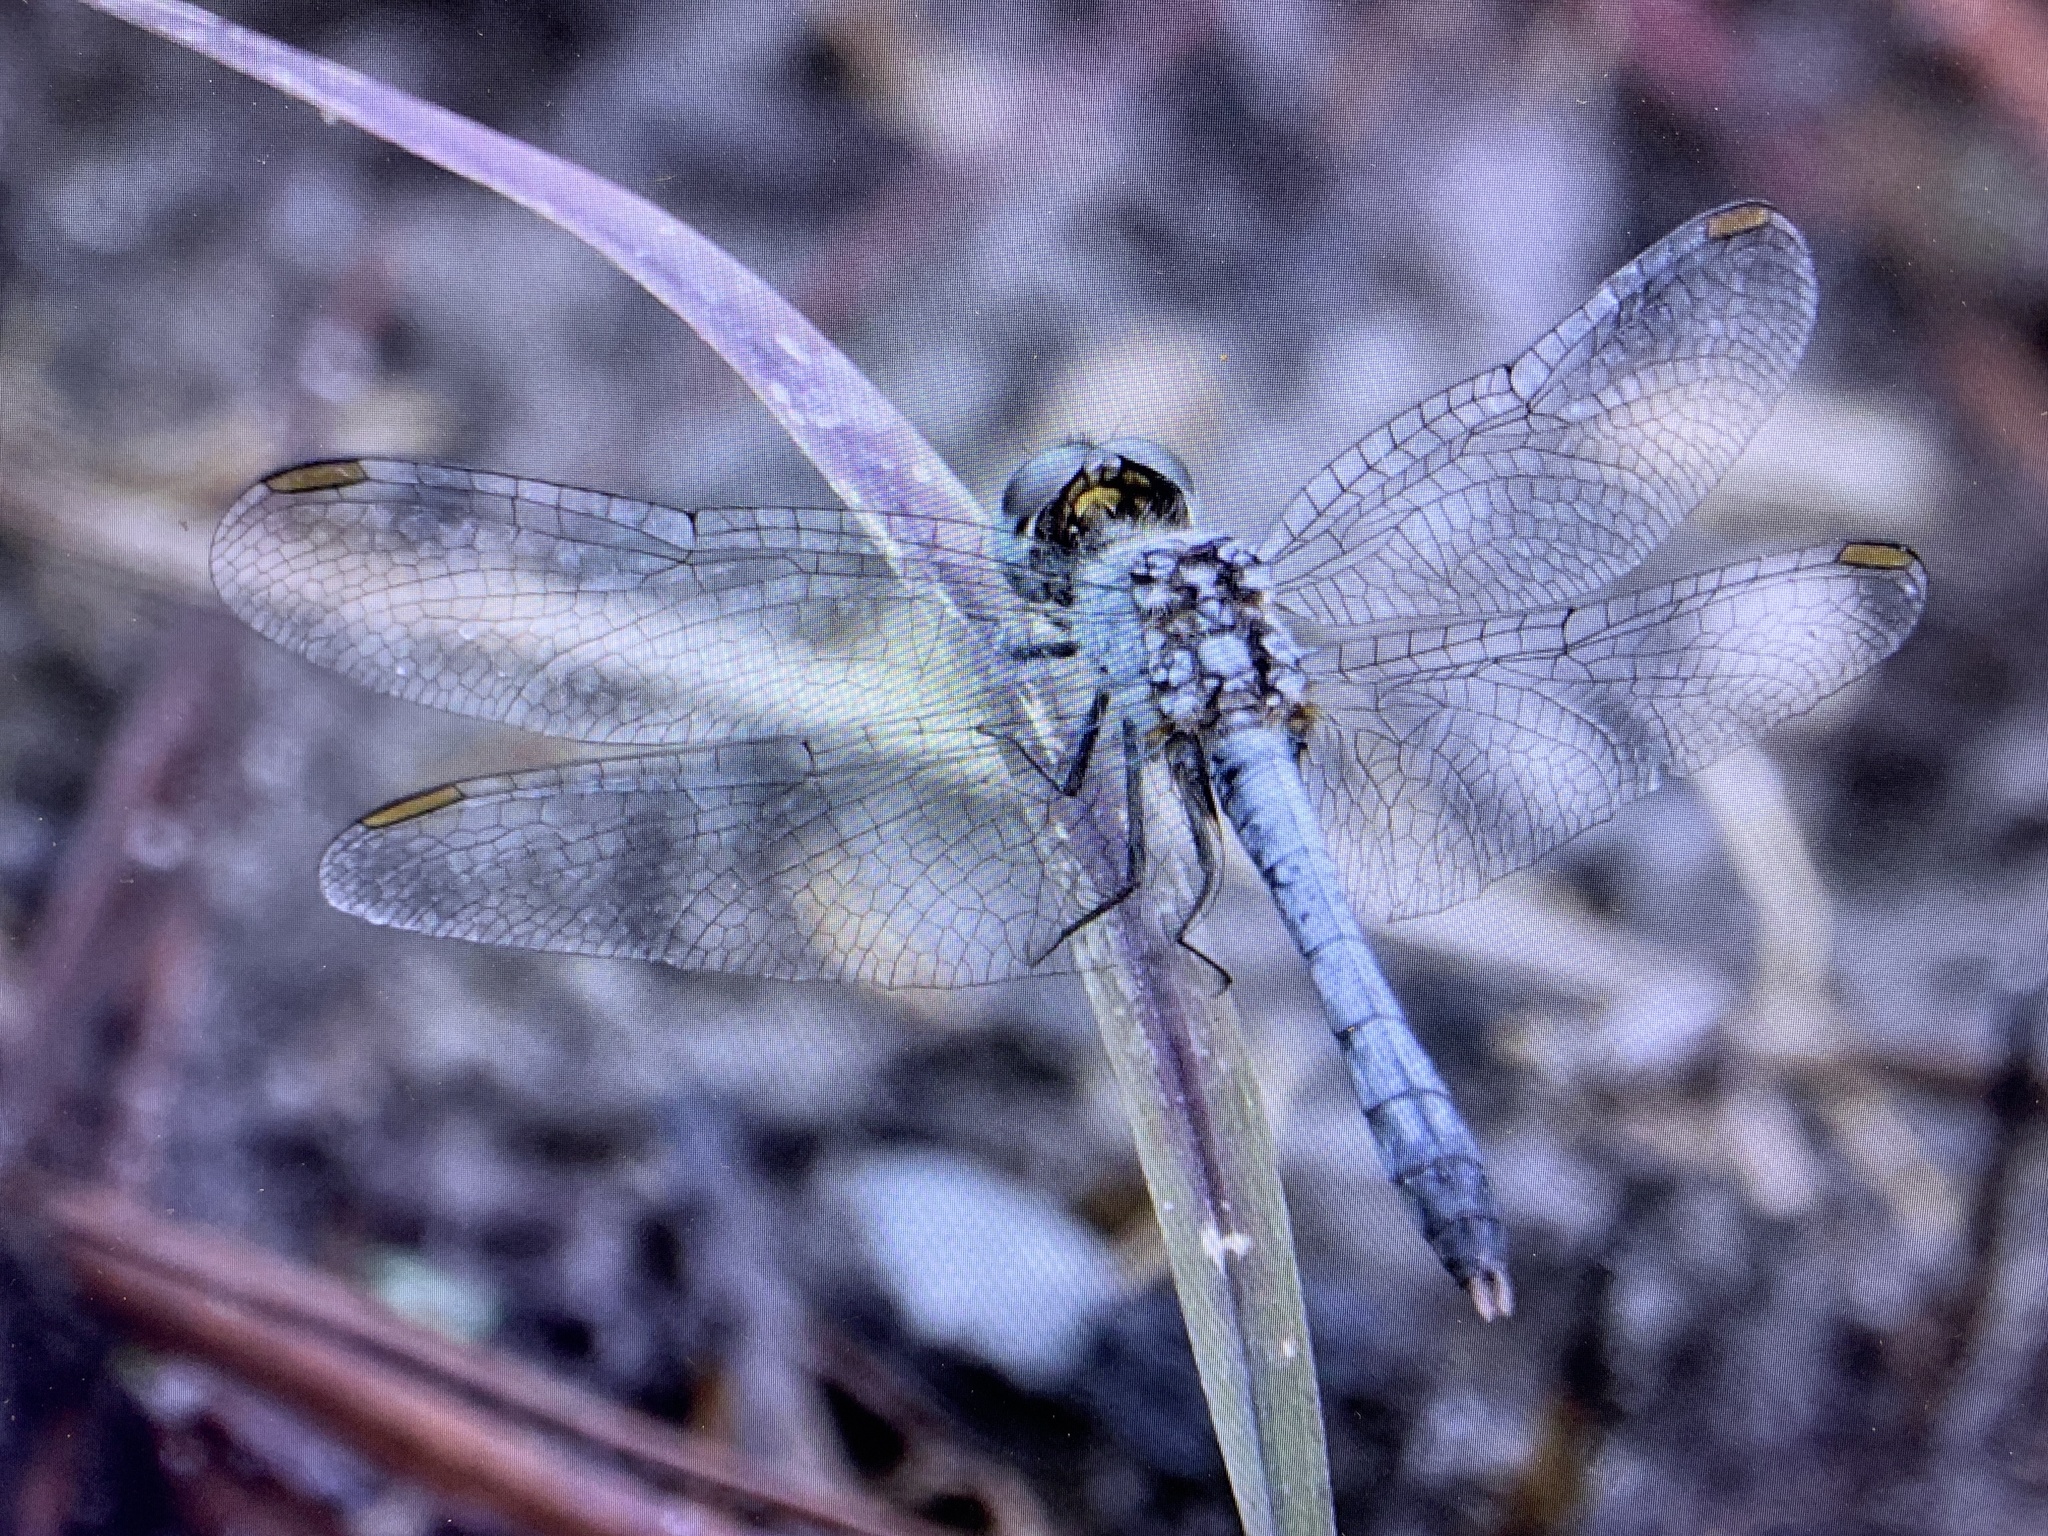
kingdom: Animalia
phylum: Arthropoda
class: Insecta
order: Odonata
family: Libellulidae
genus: Erythrodiplax
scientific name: Erythrodiplax minuscula
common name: Little blue dragonlet
